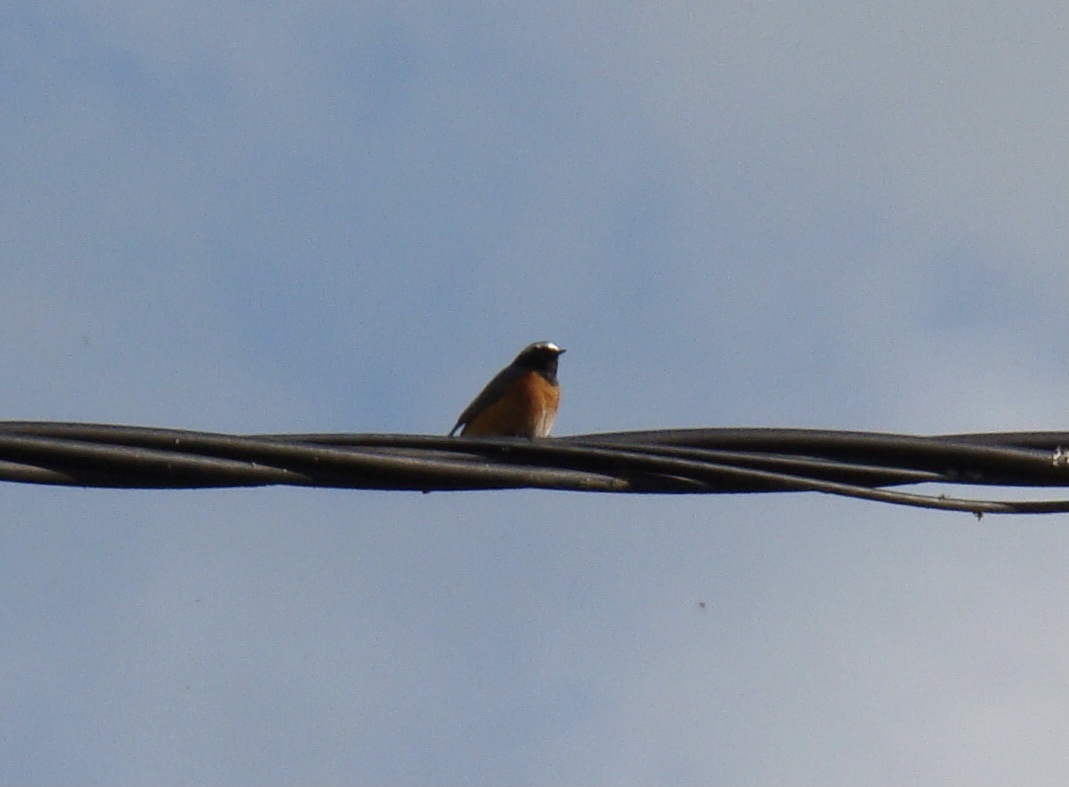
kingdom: Animalia
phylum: Chordata
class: Aves
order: Passeriformes
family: Muscicapidae
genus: Phoenicurus
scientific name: Phoenicurus phoenicurus
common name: Common redstart
